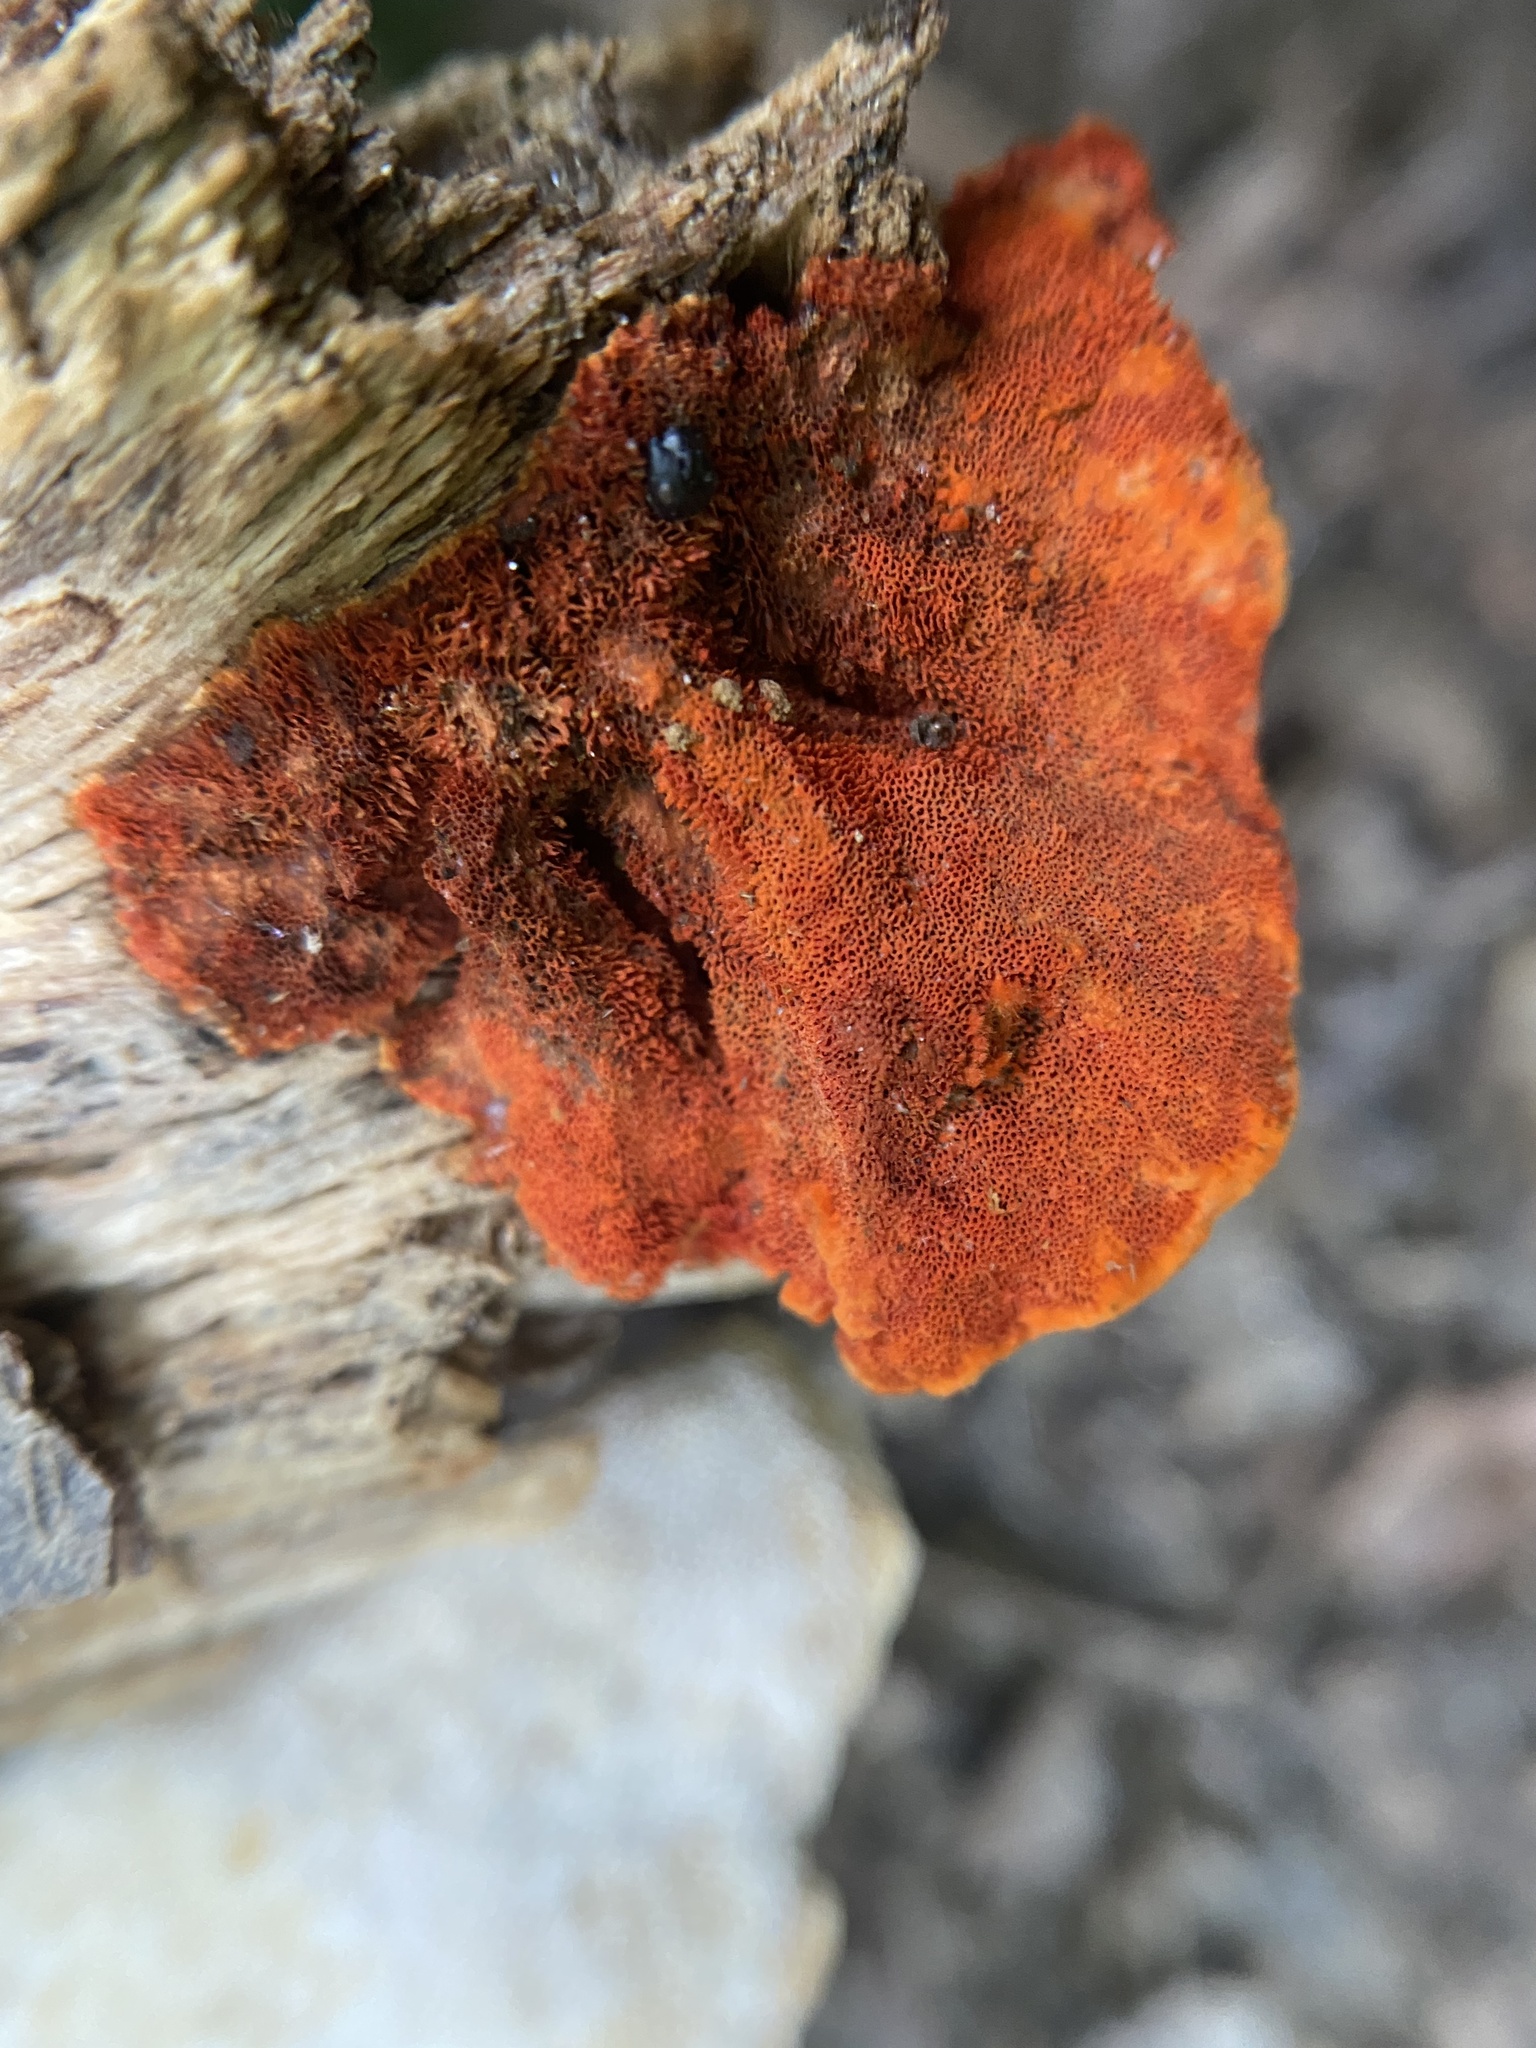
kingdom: Fungi
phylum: Basidiomycota
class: Agaricomycetes
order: Polyporales
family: Polyporaceae
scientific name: Polyporaceae
